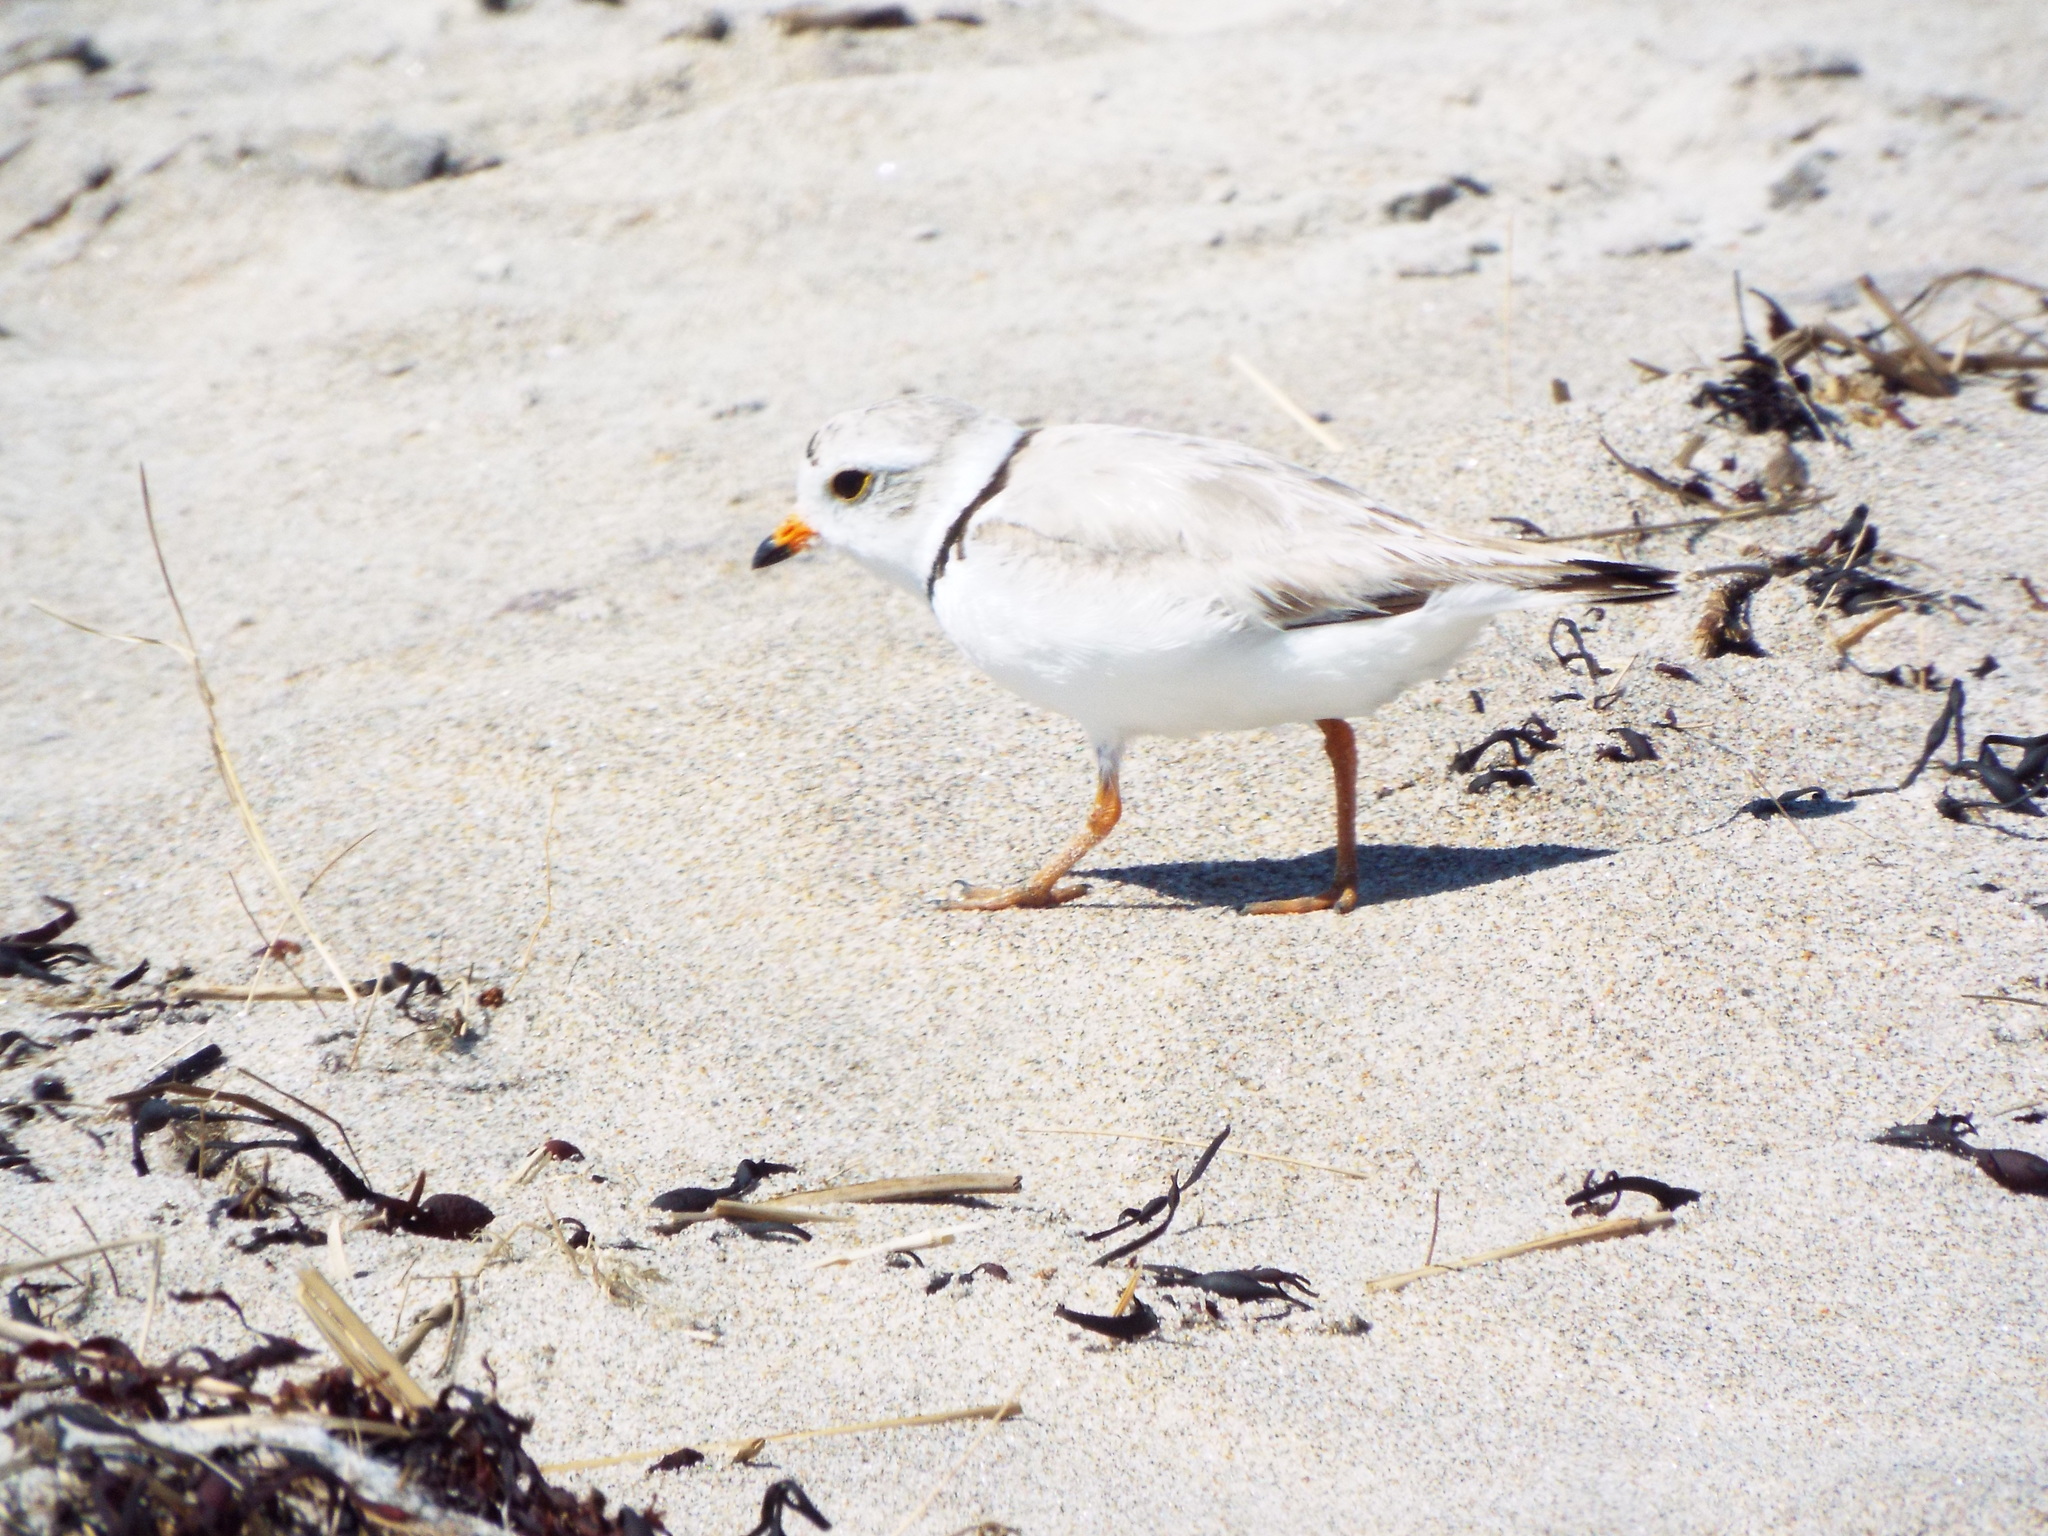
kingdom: Animalia
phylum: Chordata
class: Aves
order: Charadriiformes
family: Charadriidae
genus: Charadrius
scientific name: Charadrius melodus
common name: Piping plover
